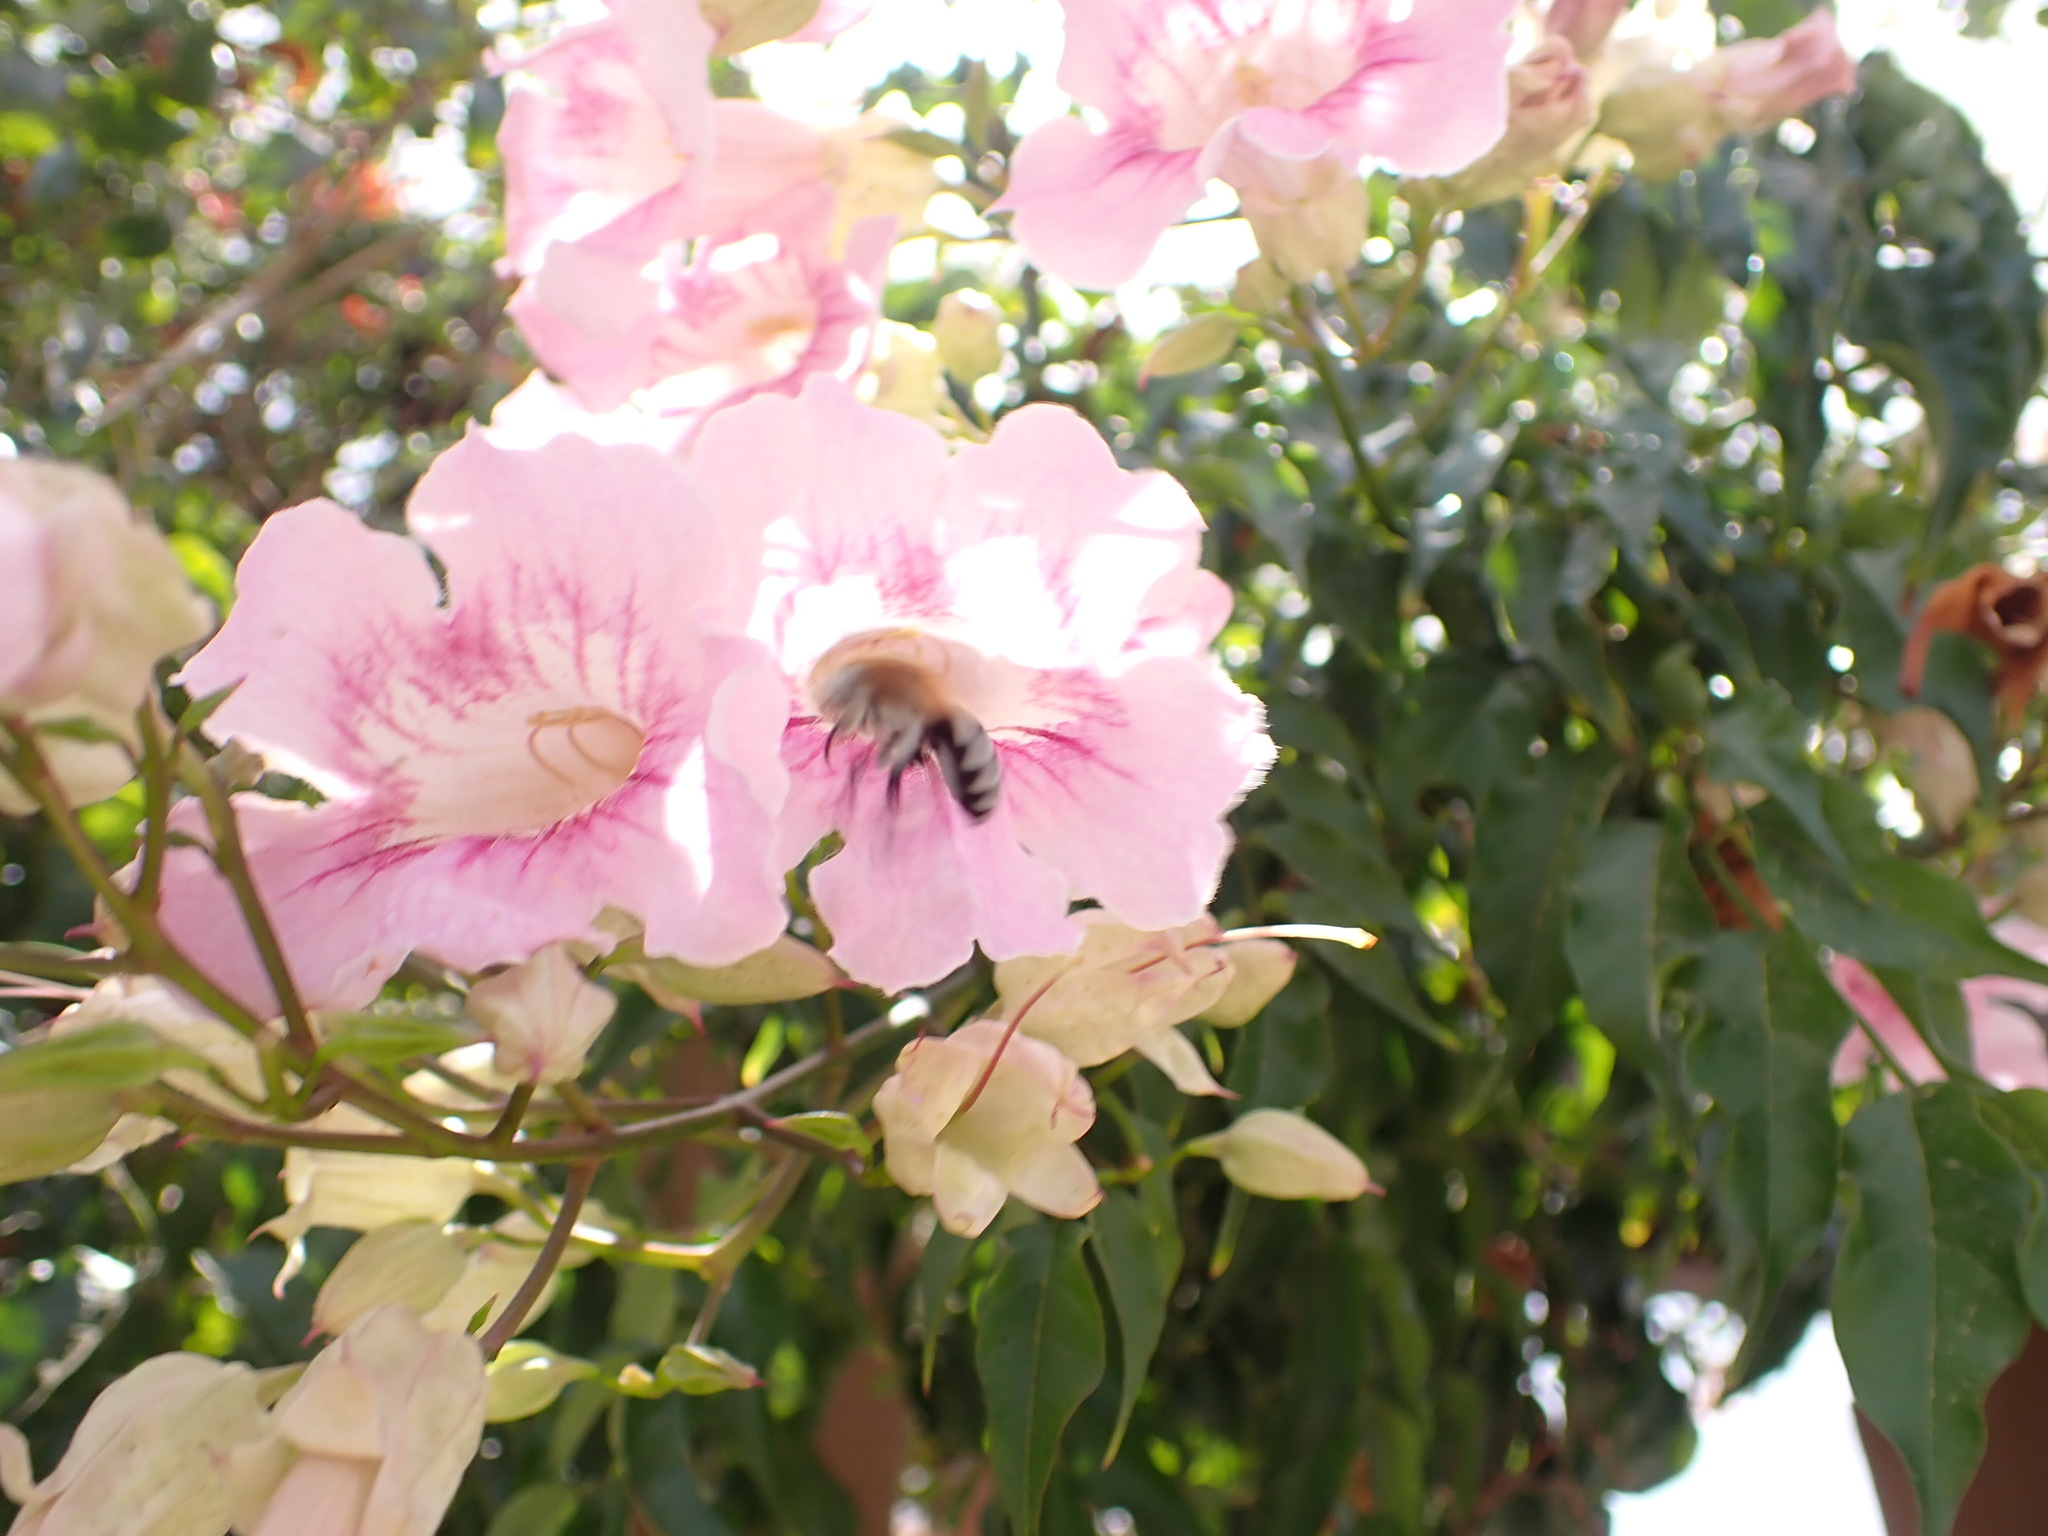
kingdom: Animalia
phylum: Arthropoda
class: Insecta
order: Hymenoptera
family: Apidae
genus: Amegilla
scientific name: Amegilla quadrifasciata
